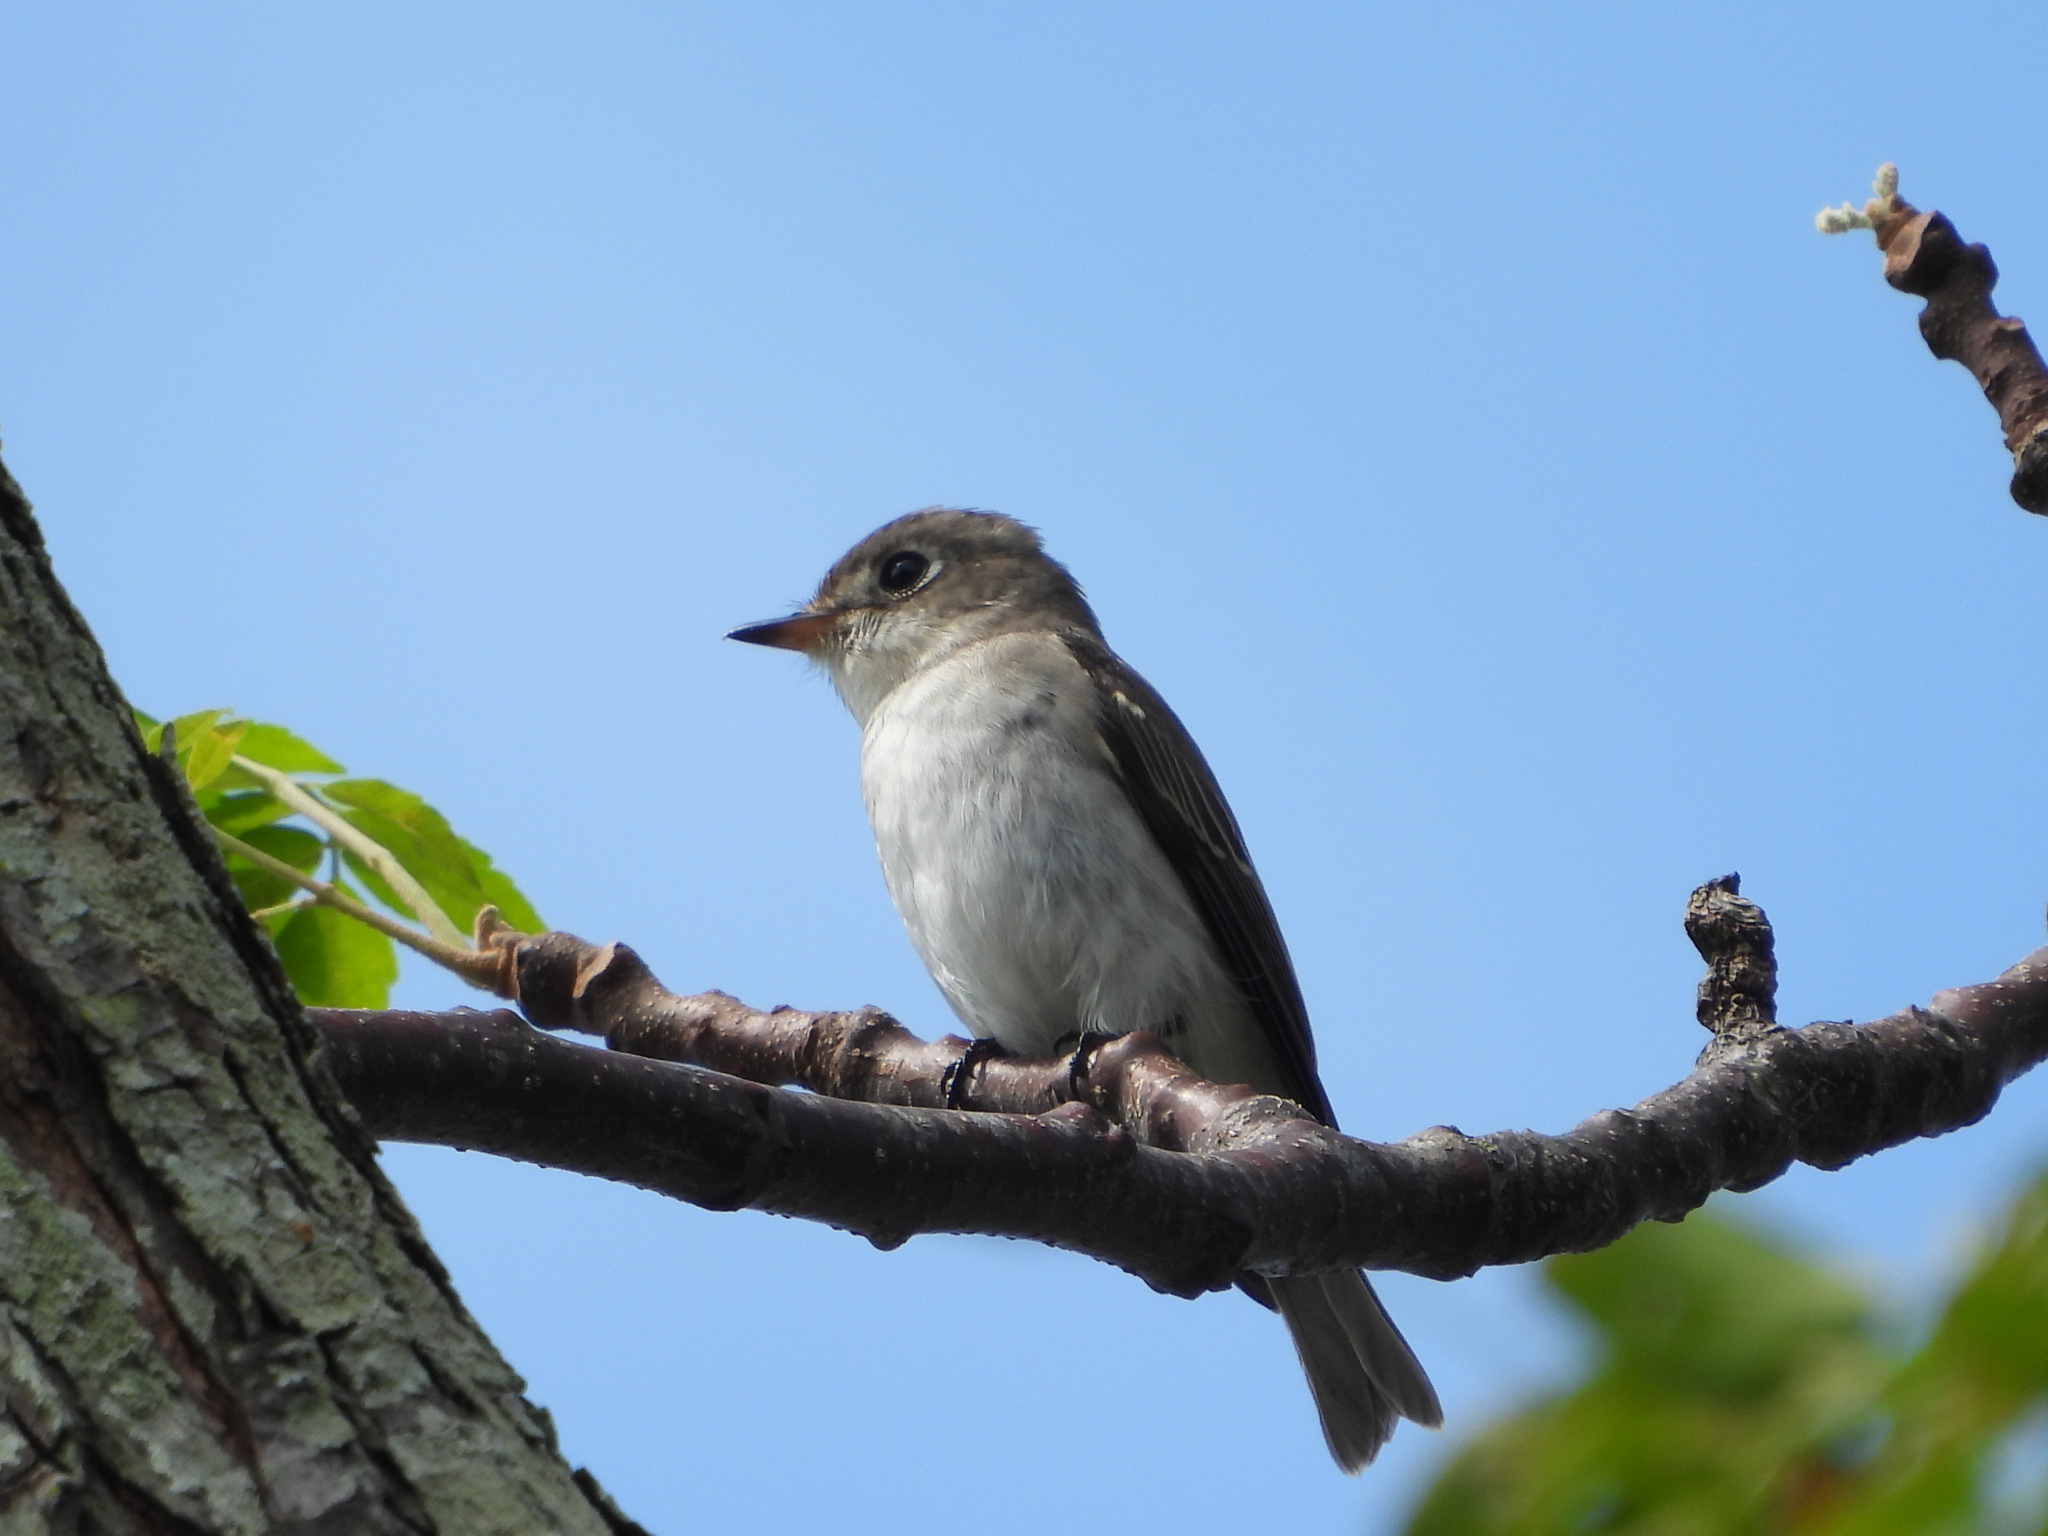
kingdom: Animalia
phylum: Chordata
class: Aves
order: Passeriformes
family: Muscicapidae
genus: Muscicapa
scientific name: Muscicapa latirostris
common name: Asian brown flycatcher
